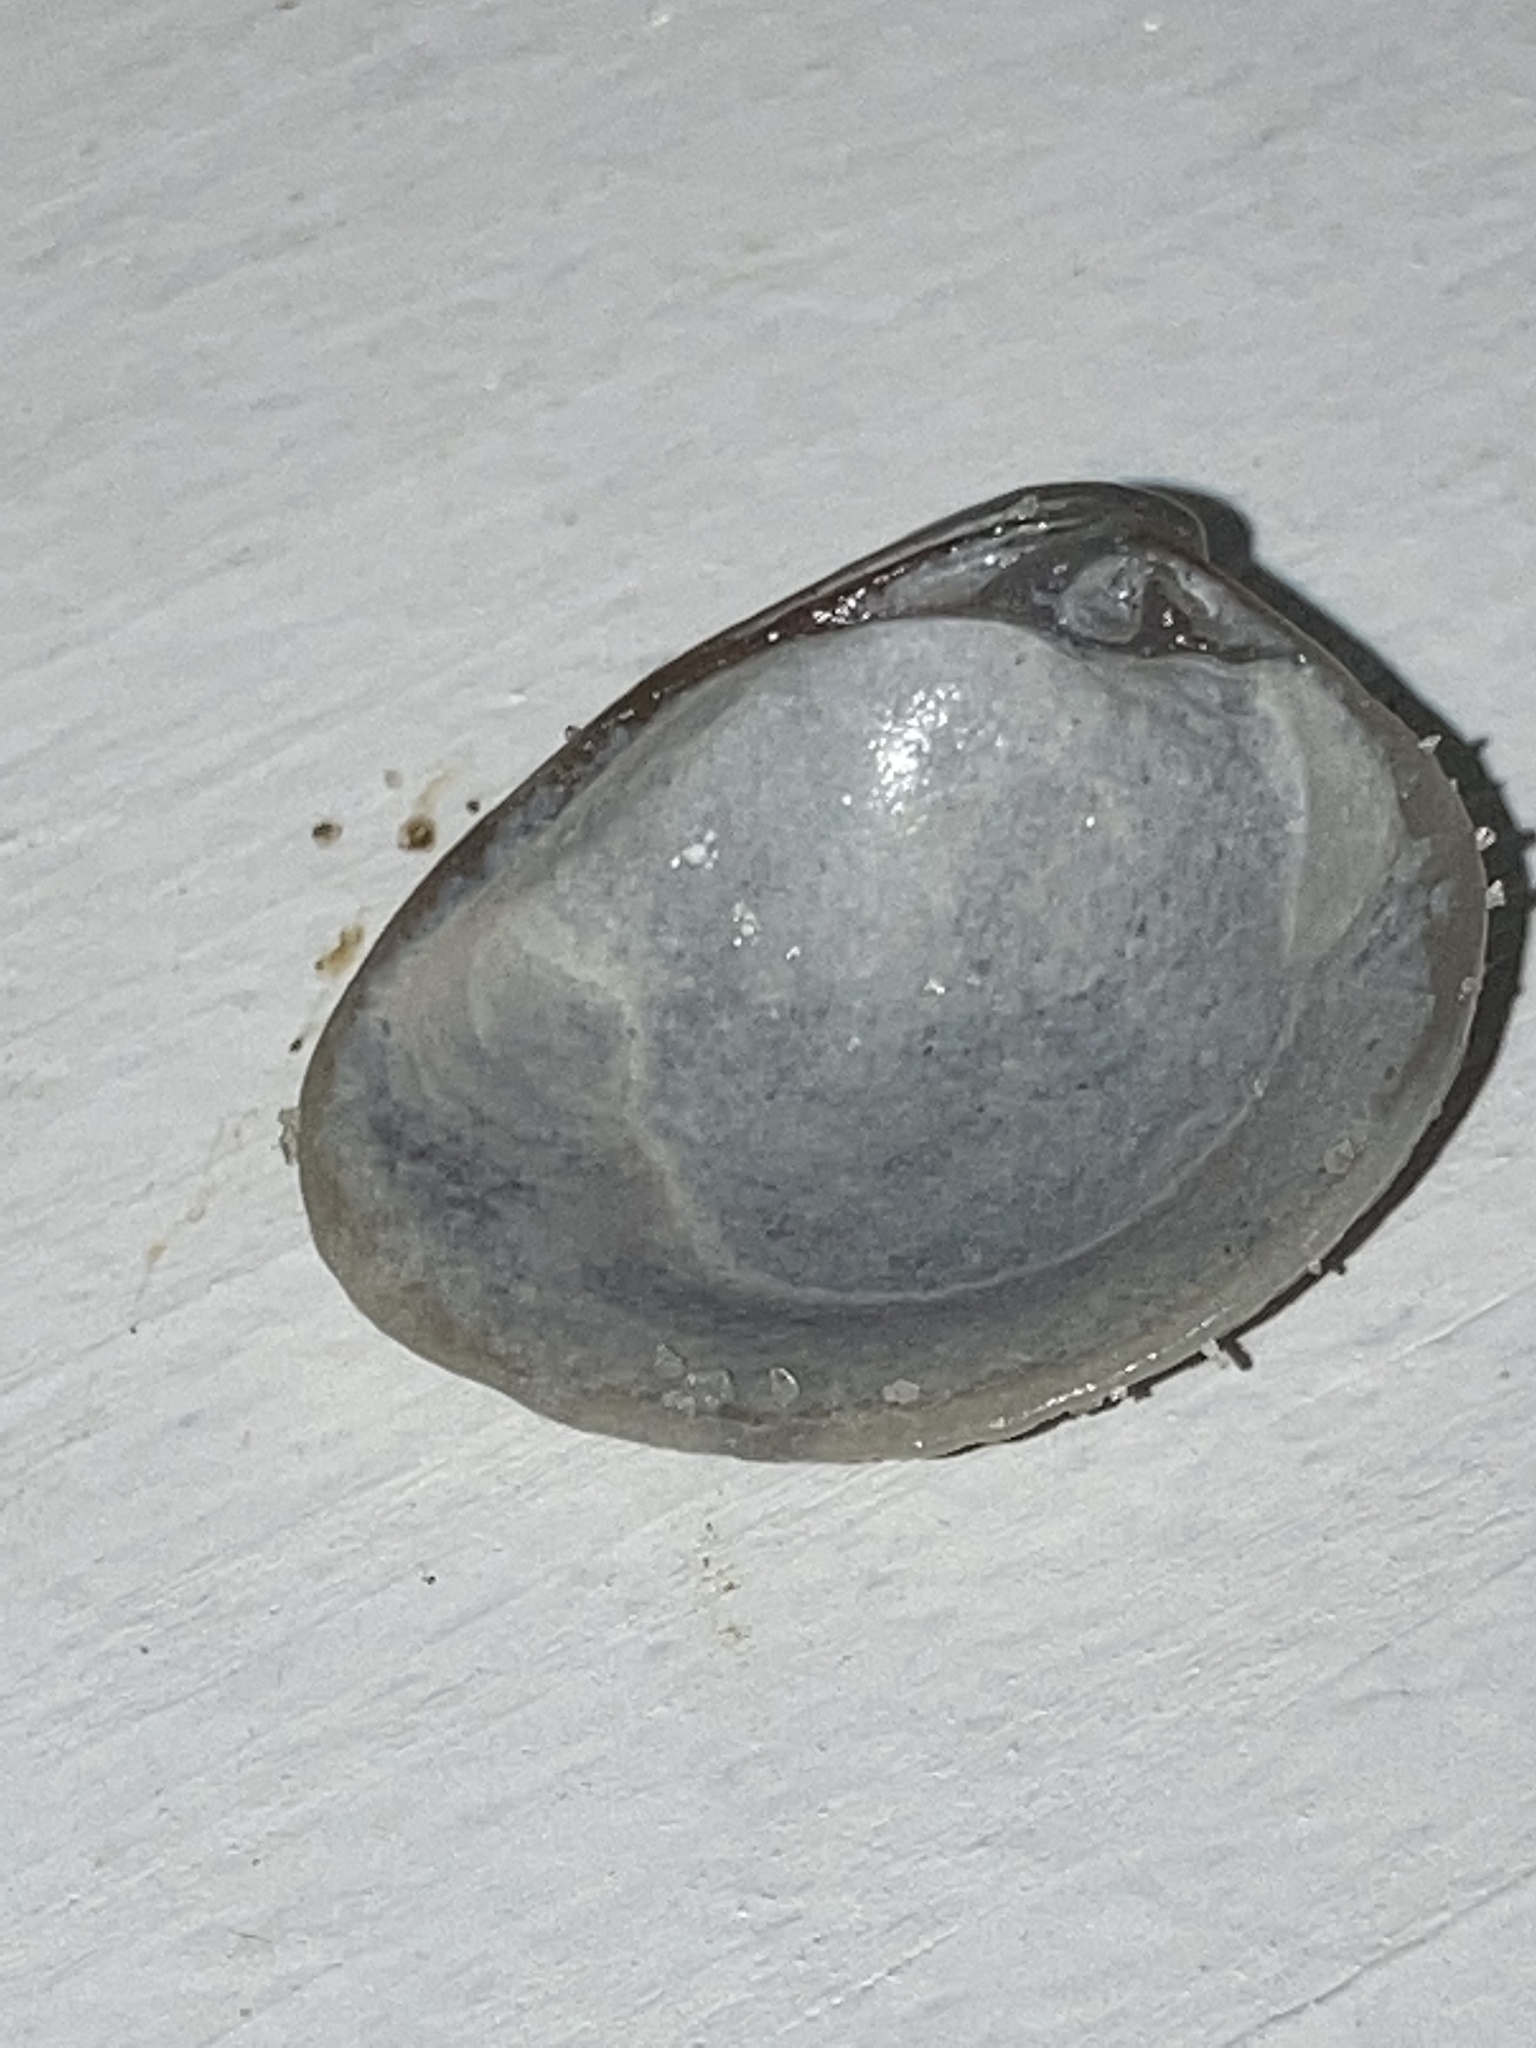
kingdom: Animalia
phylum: Mollusca
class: Bivalvia
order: Venerida
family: Veneridae
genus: Chione
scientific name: Chione elevata
